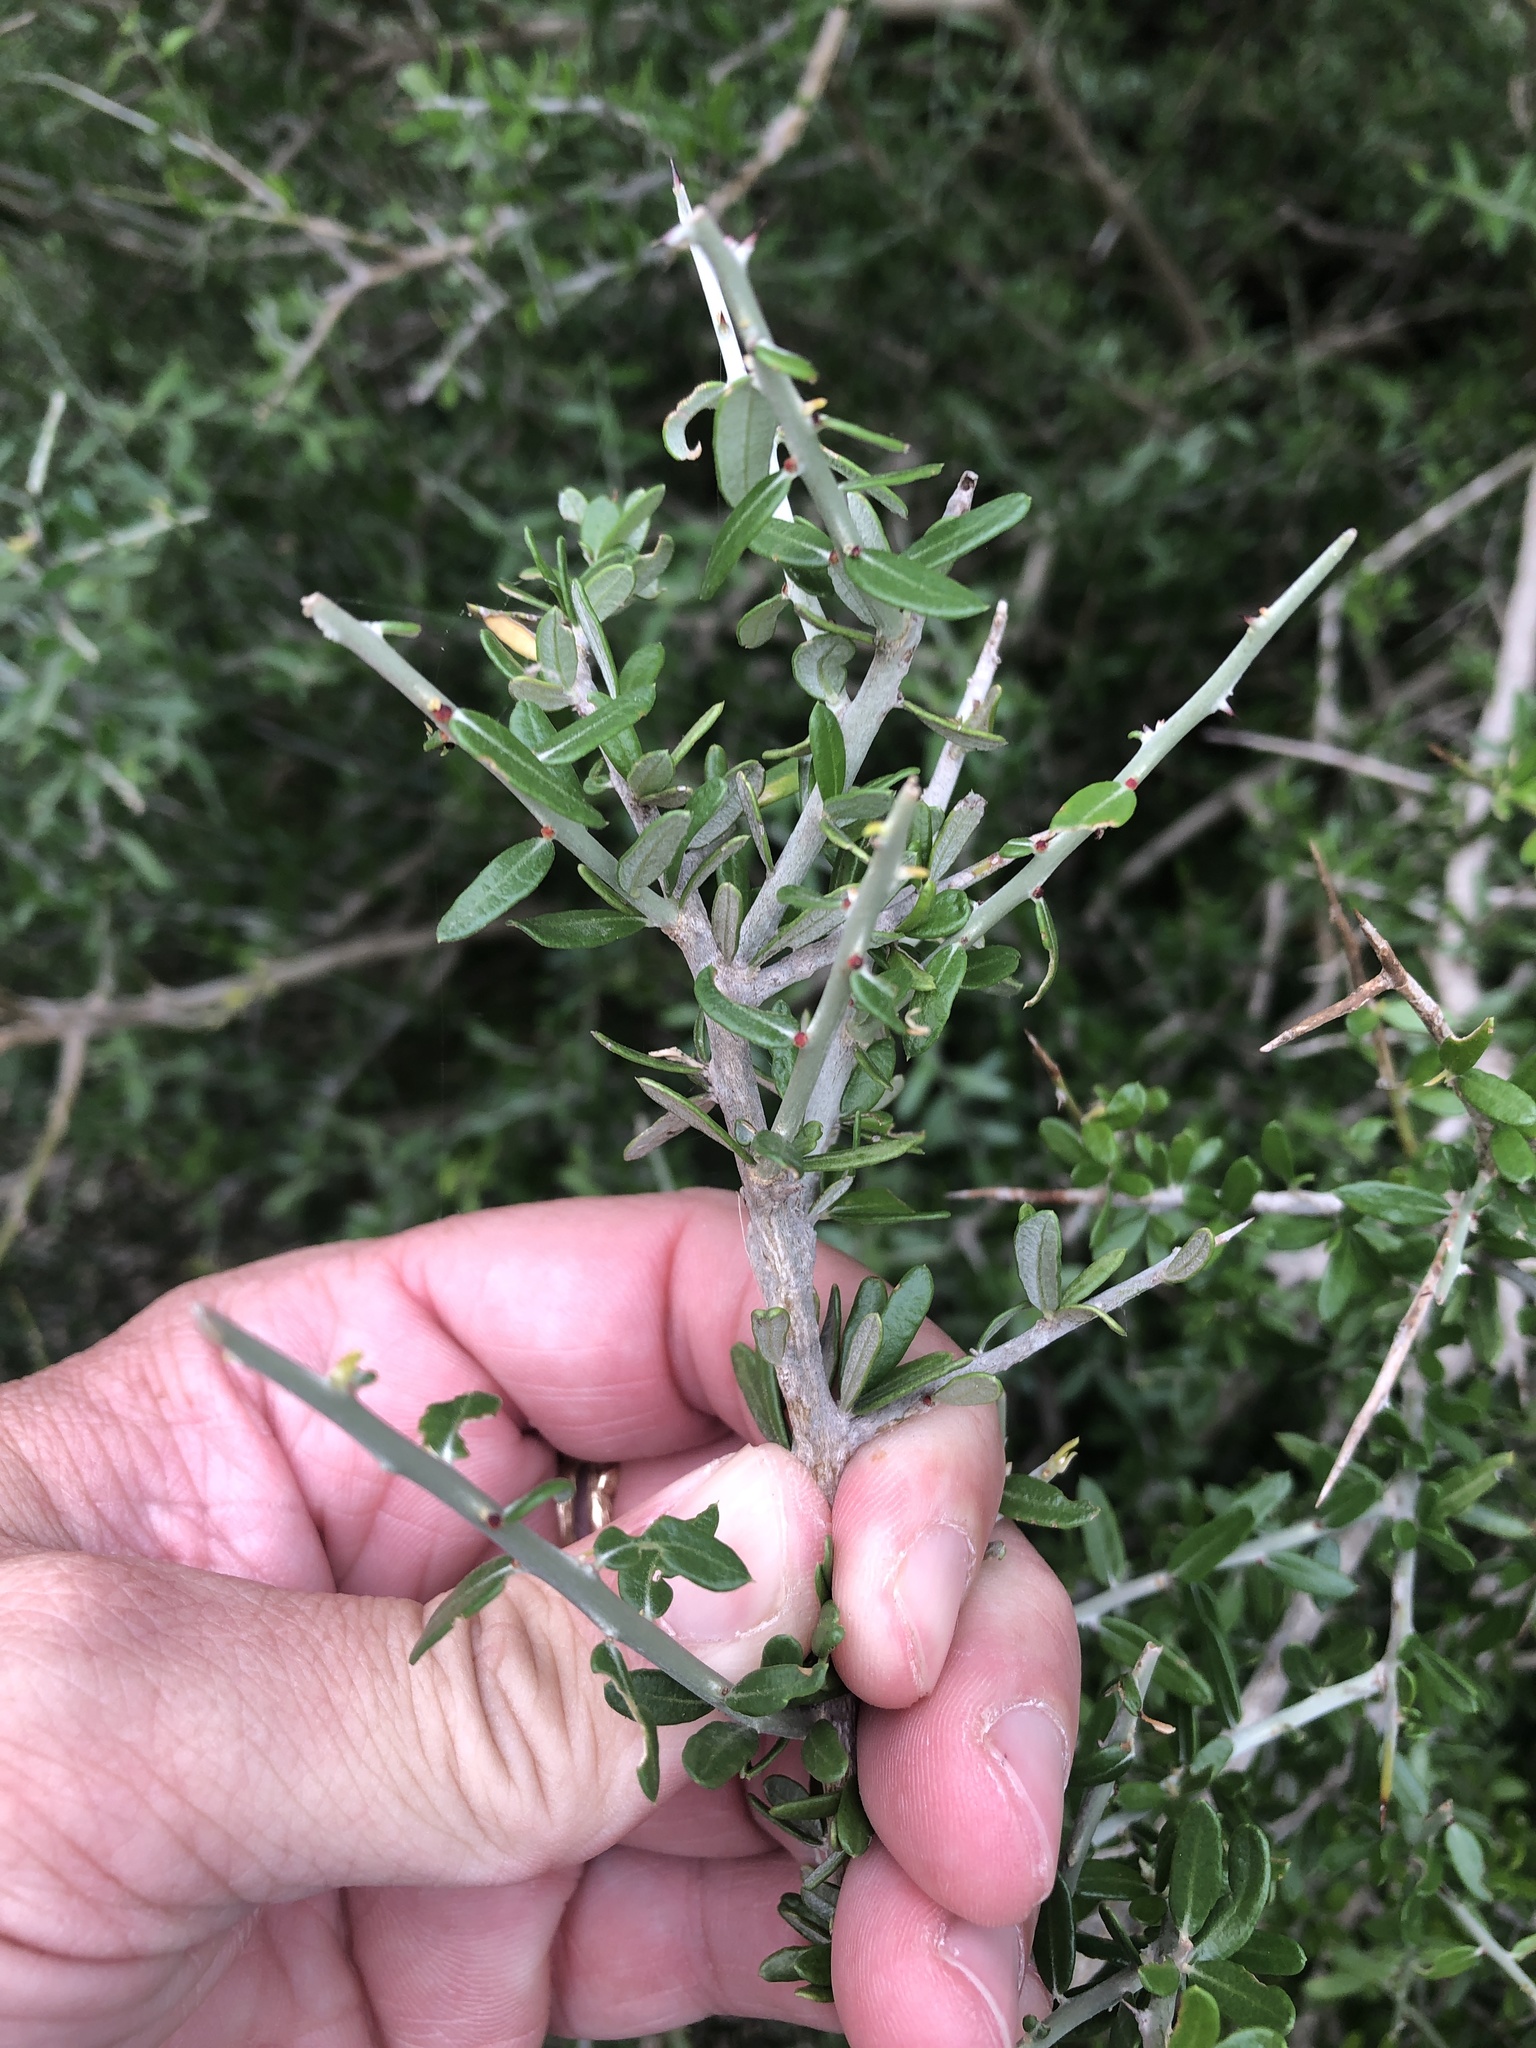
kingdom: Plantae
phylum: Tracheophyta
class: Magnoliopsida
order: Sapindales
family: Simaroubaceae
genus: Castela
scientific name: Castela tortuosa
